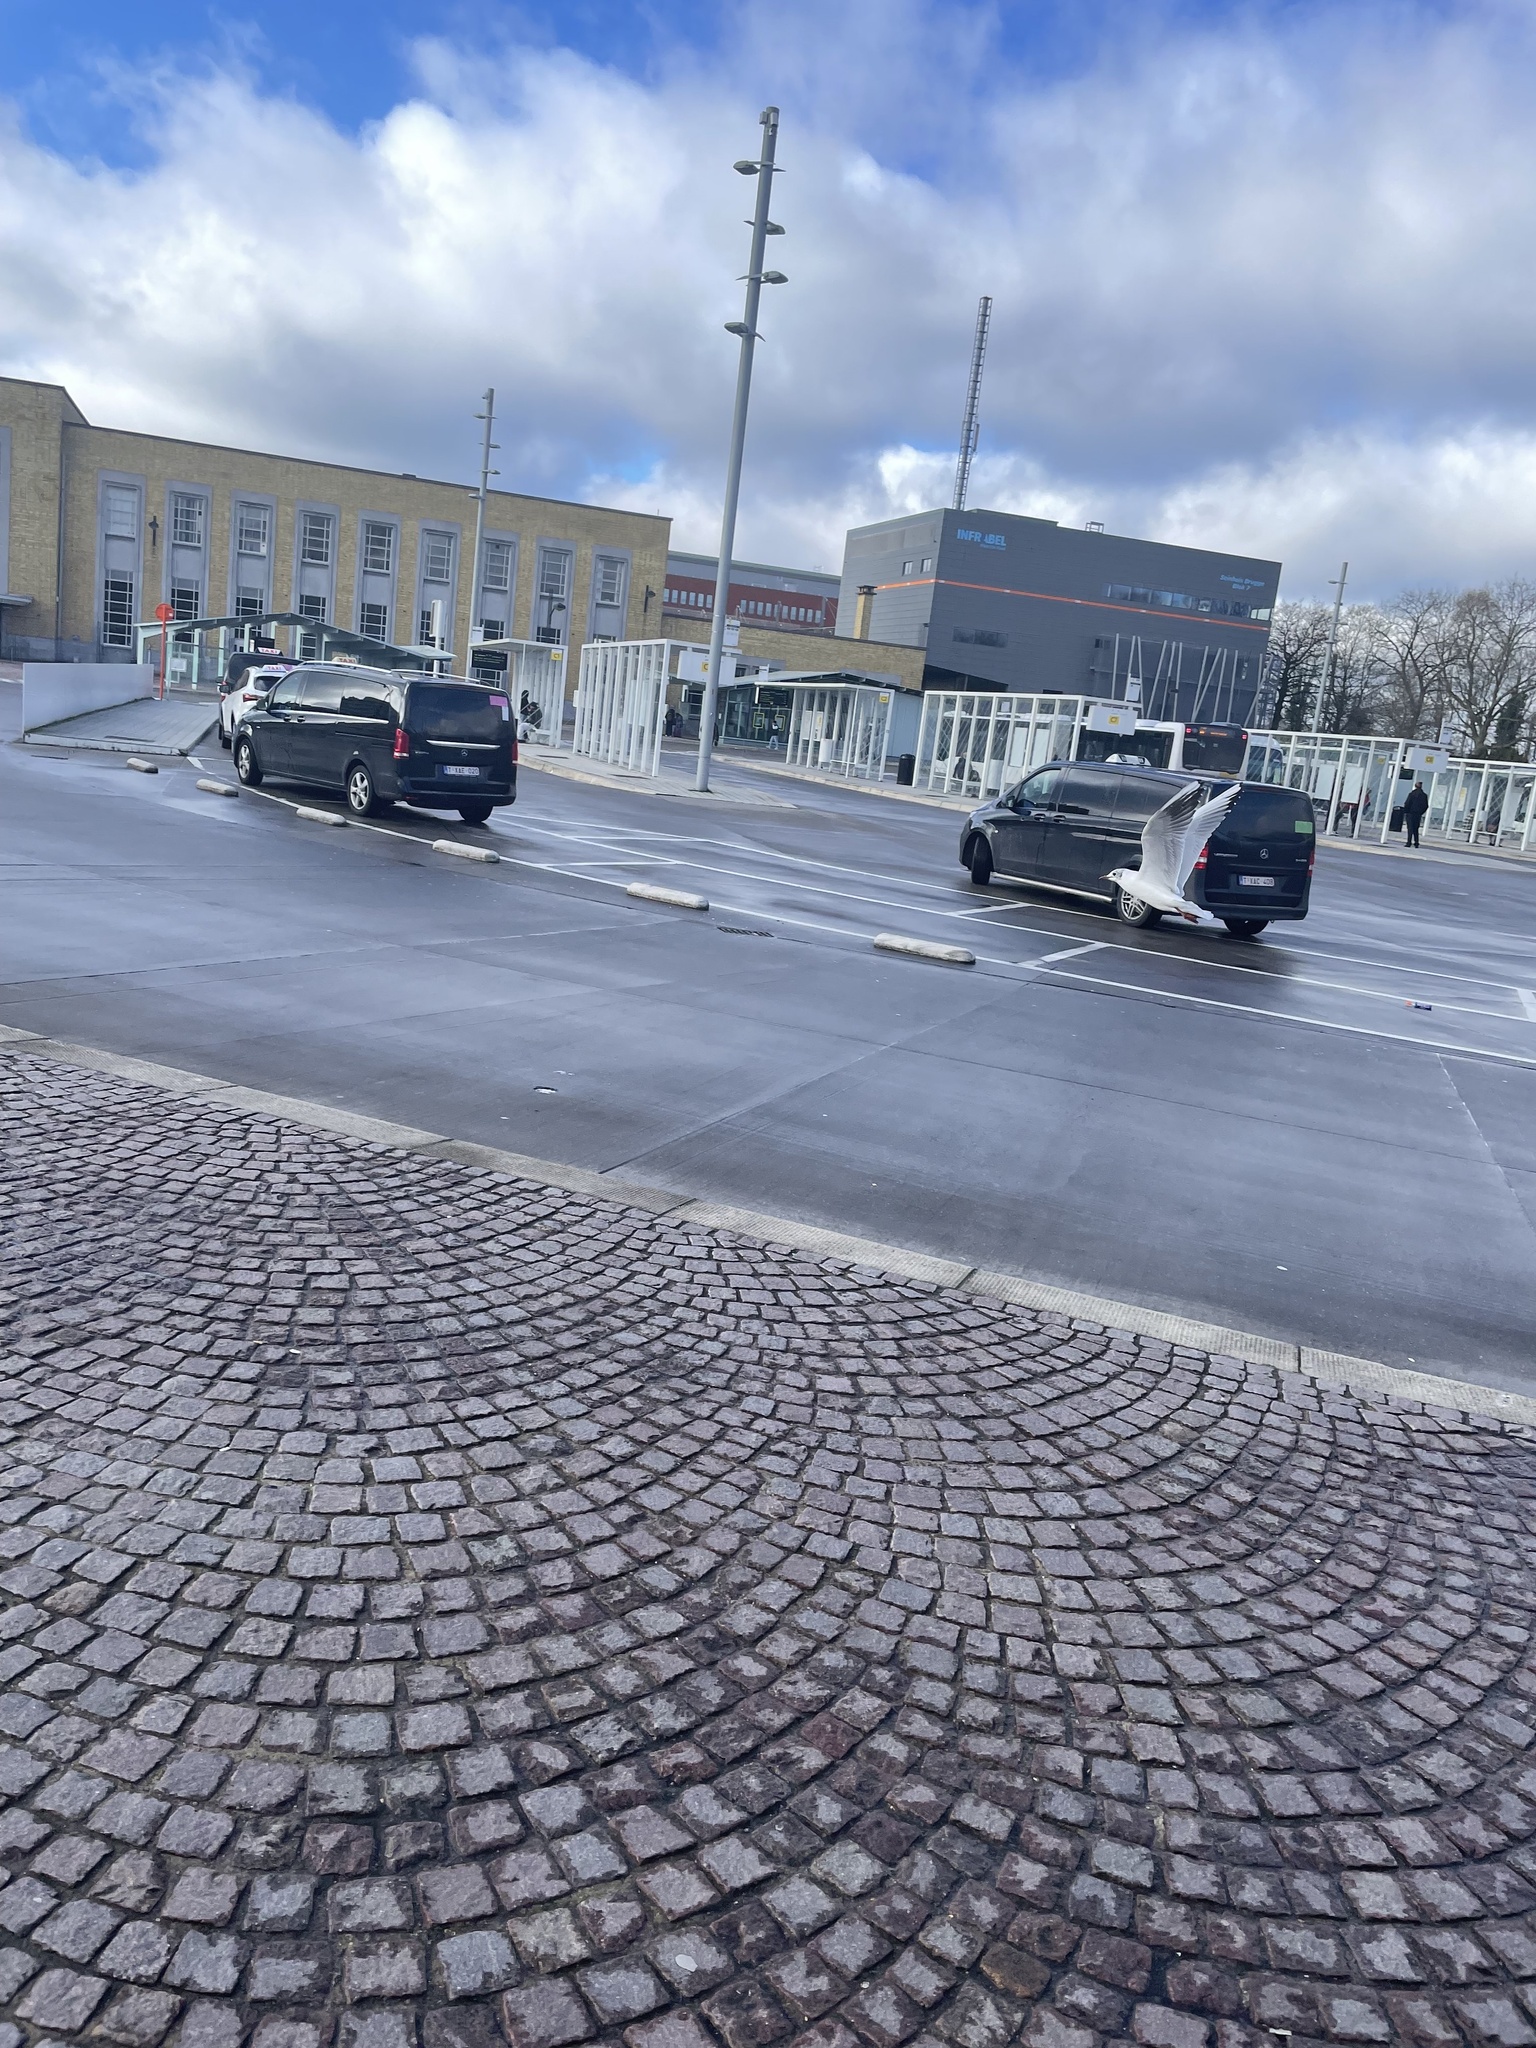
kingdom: Animalia
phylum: Chordata
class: Aves
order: Charadriiformes
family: Laridae
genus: Chroicocephalus
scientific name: Chroicocephalus ridibundus
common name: Black-headed gull
